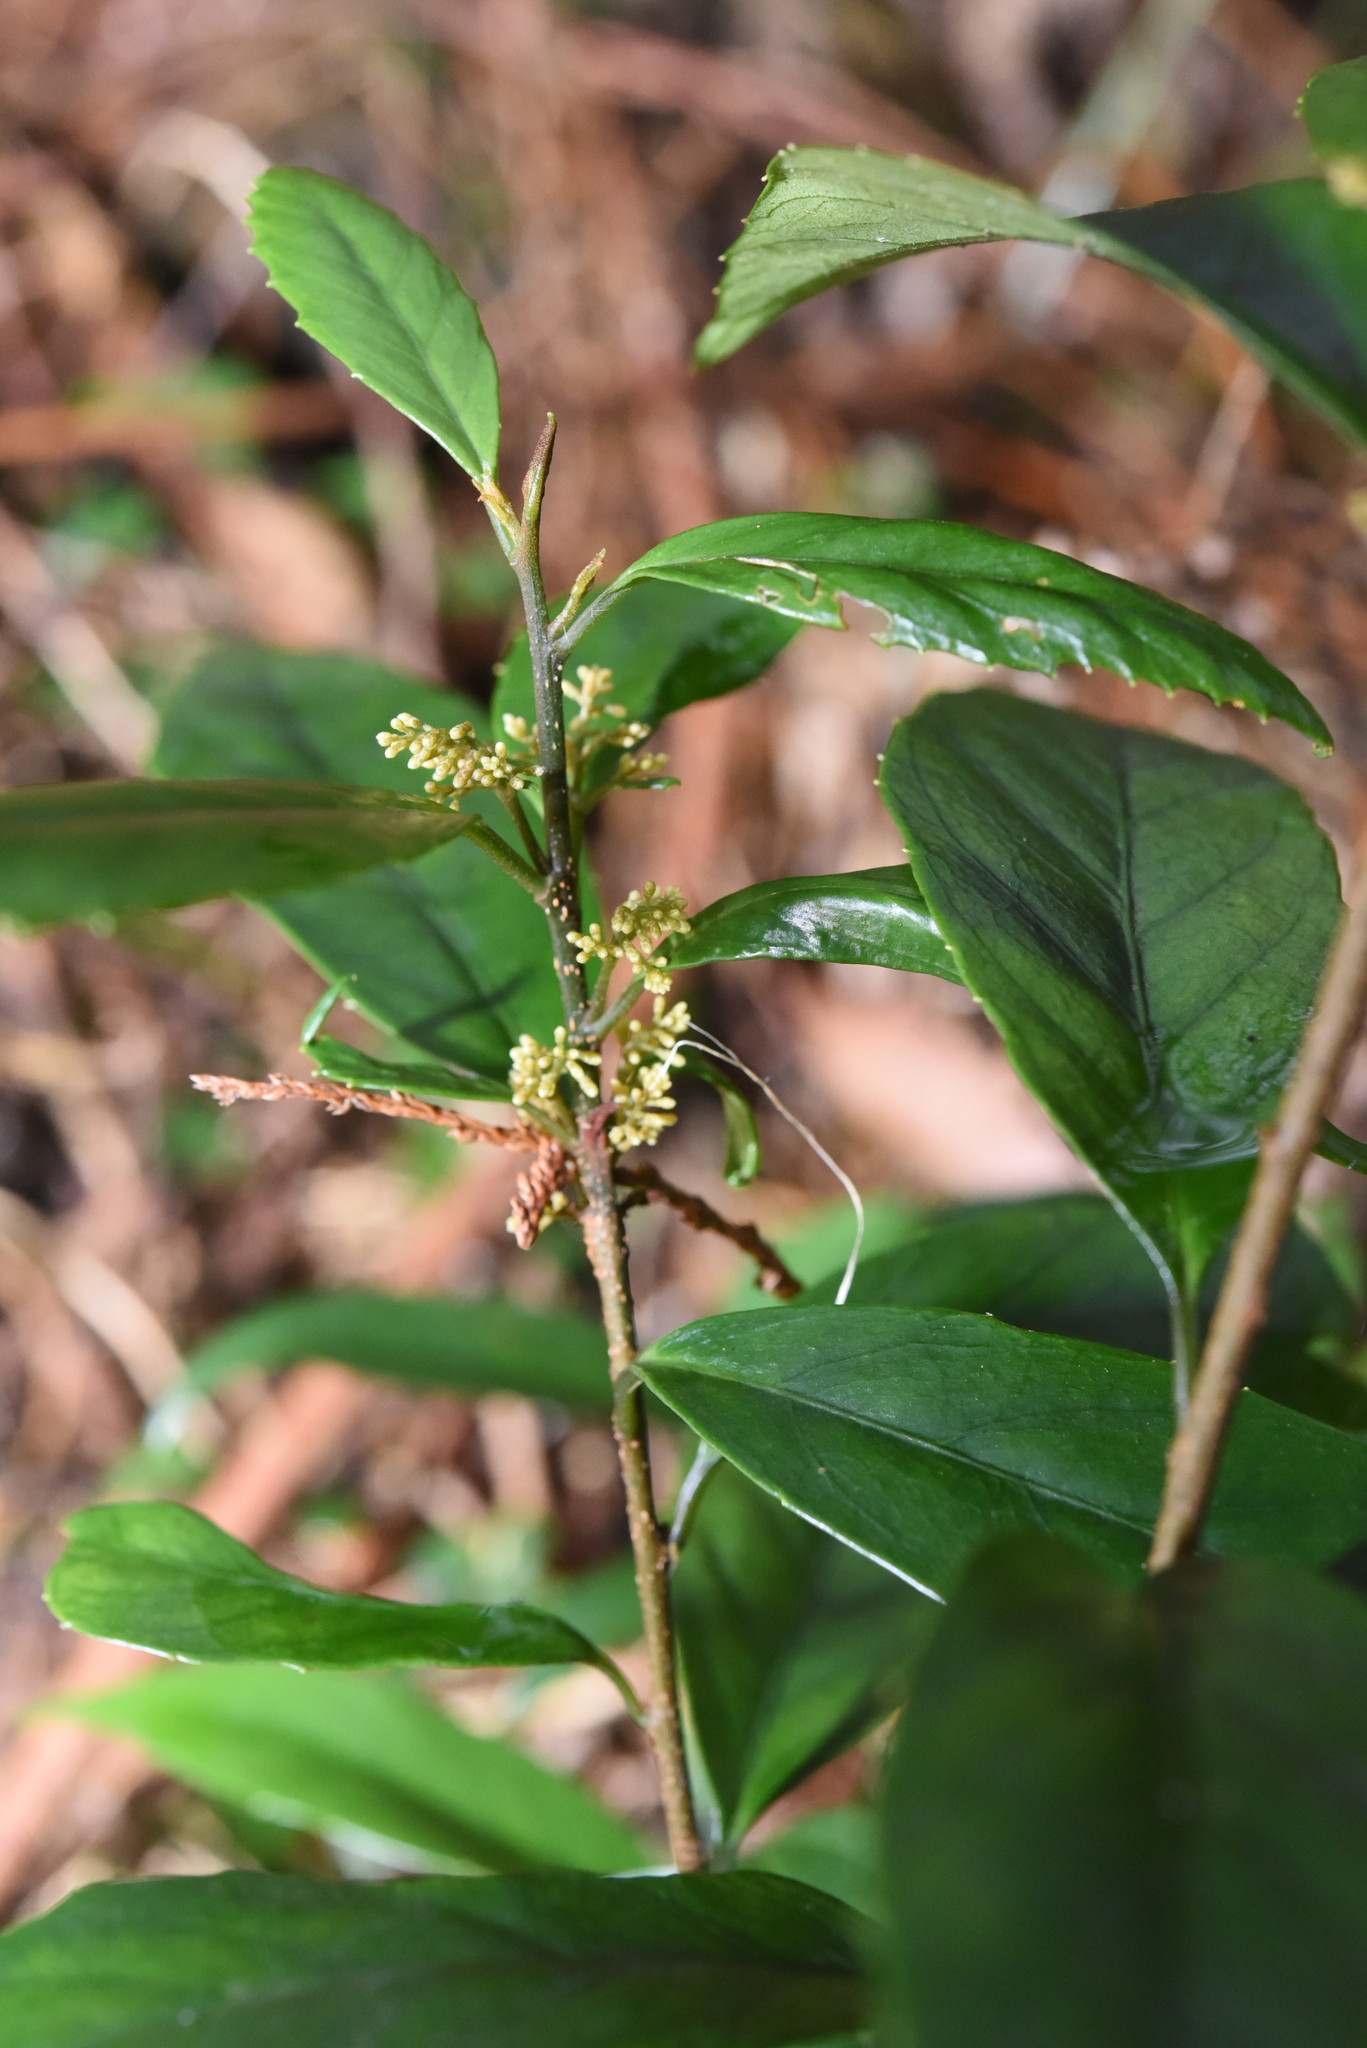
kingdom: Plantae
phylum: Tracheophyta
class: Magnoliopsida
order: Ericales
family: Primulaceae
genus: Maesa
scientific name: Maesa japonica
